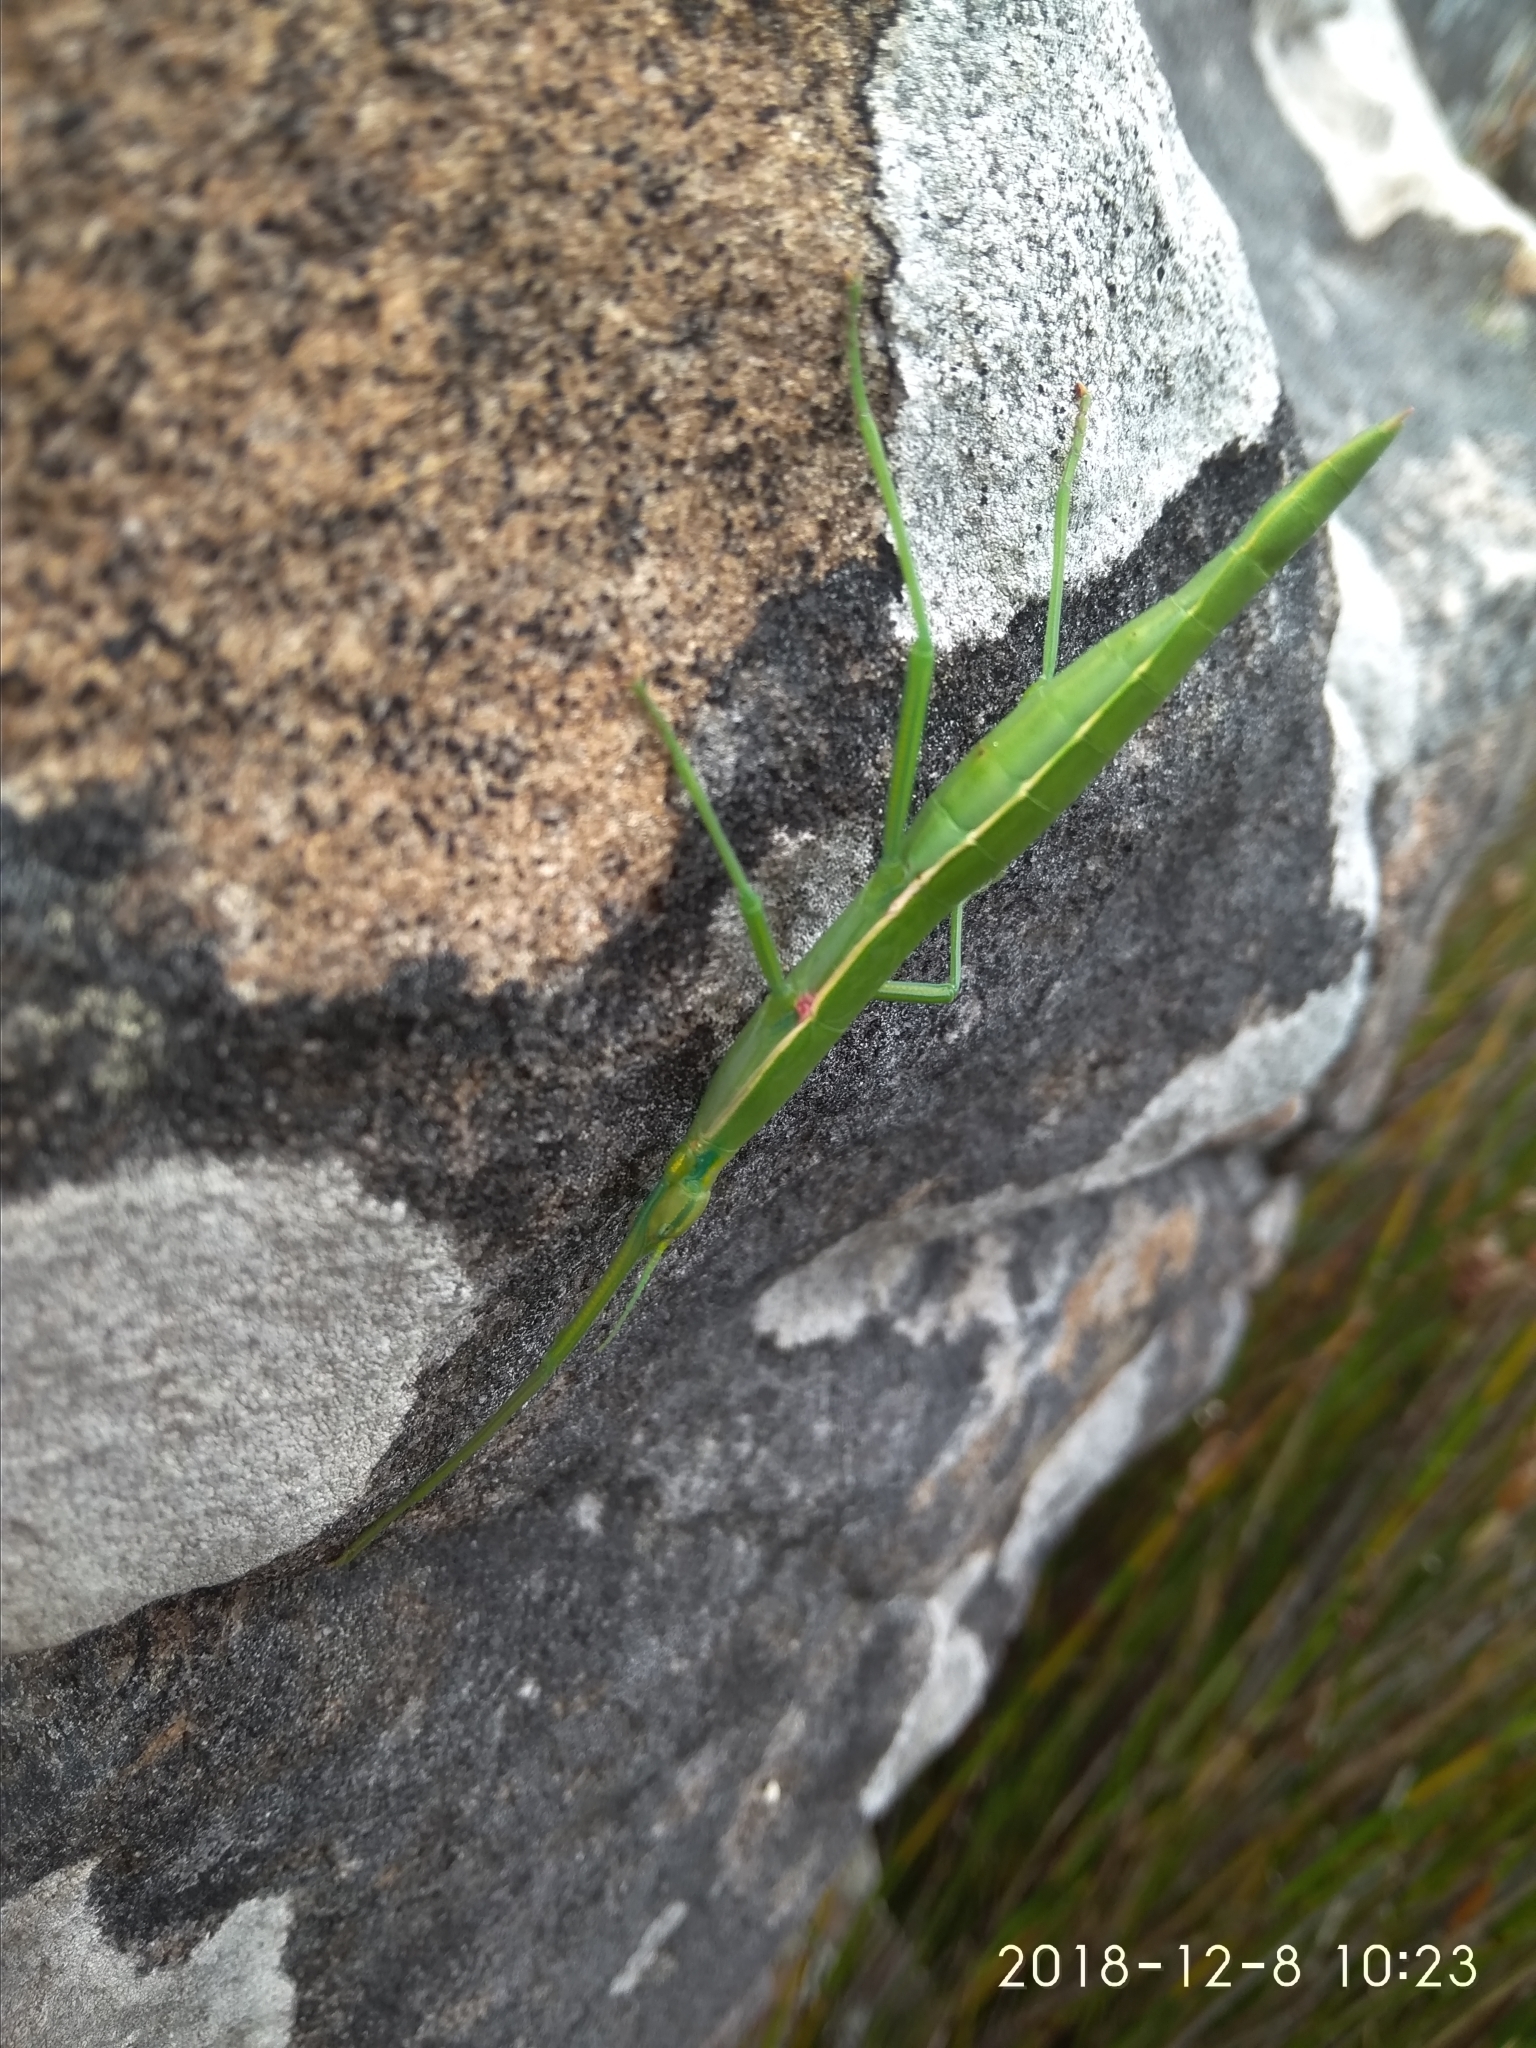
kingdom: Animalia
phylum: Arthropoda
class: Insecta
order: Phasmida
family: Bacillidae
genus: Macynia
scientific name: Macynia labiata
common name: Thunberg's stick insect
